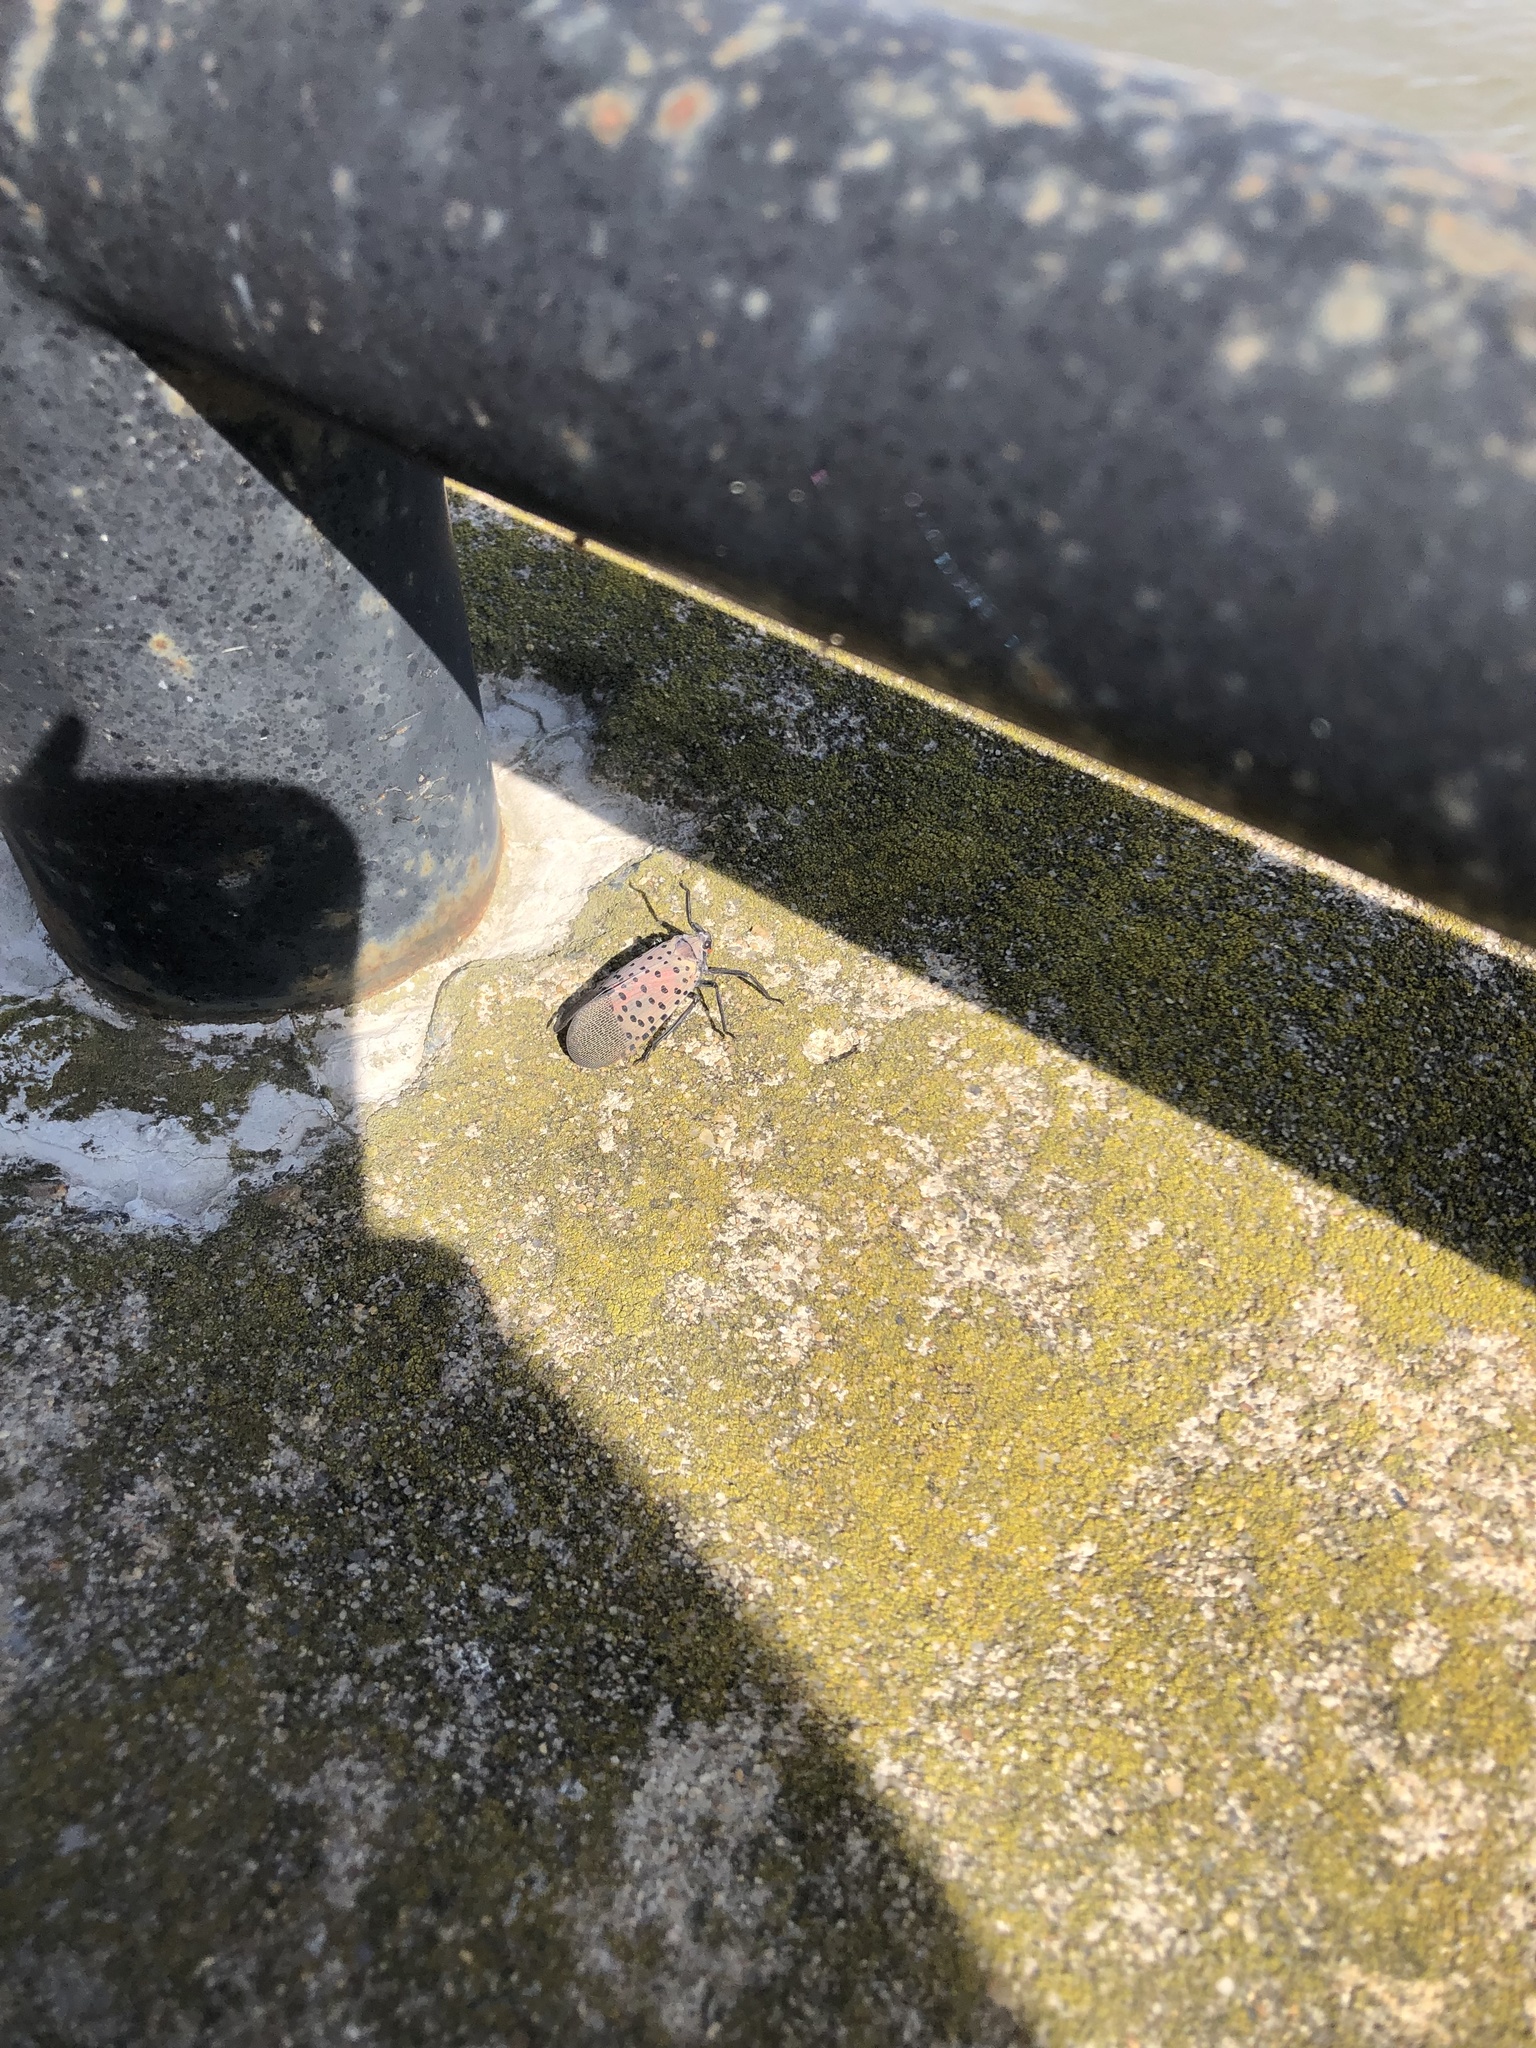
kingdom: Animalia
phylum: Arthropoda
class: Insecta
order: Hemiptera
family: Fulgoridae
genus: Lycorma
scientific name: Lycorma delicatula
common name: Spotted lanternfly
